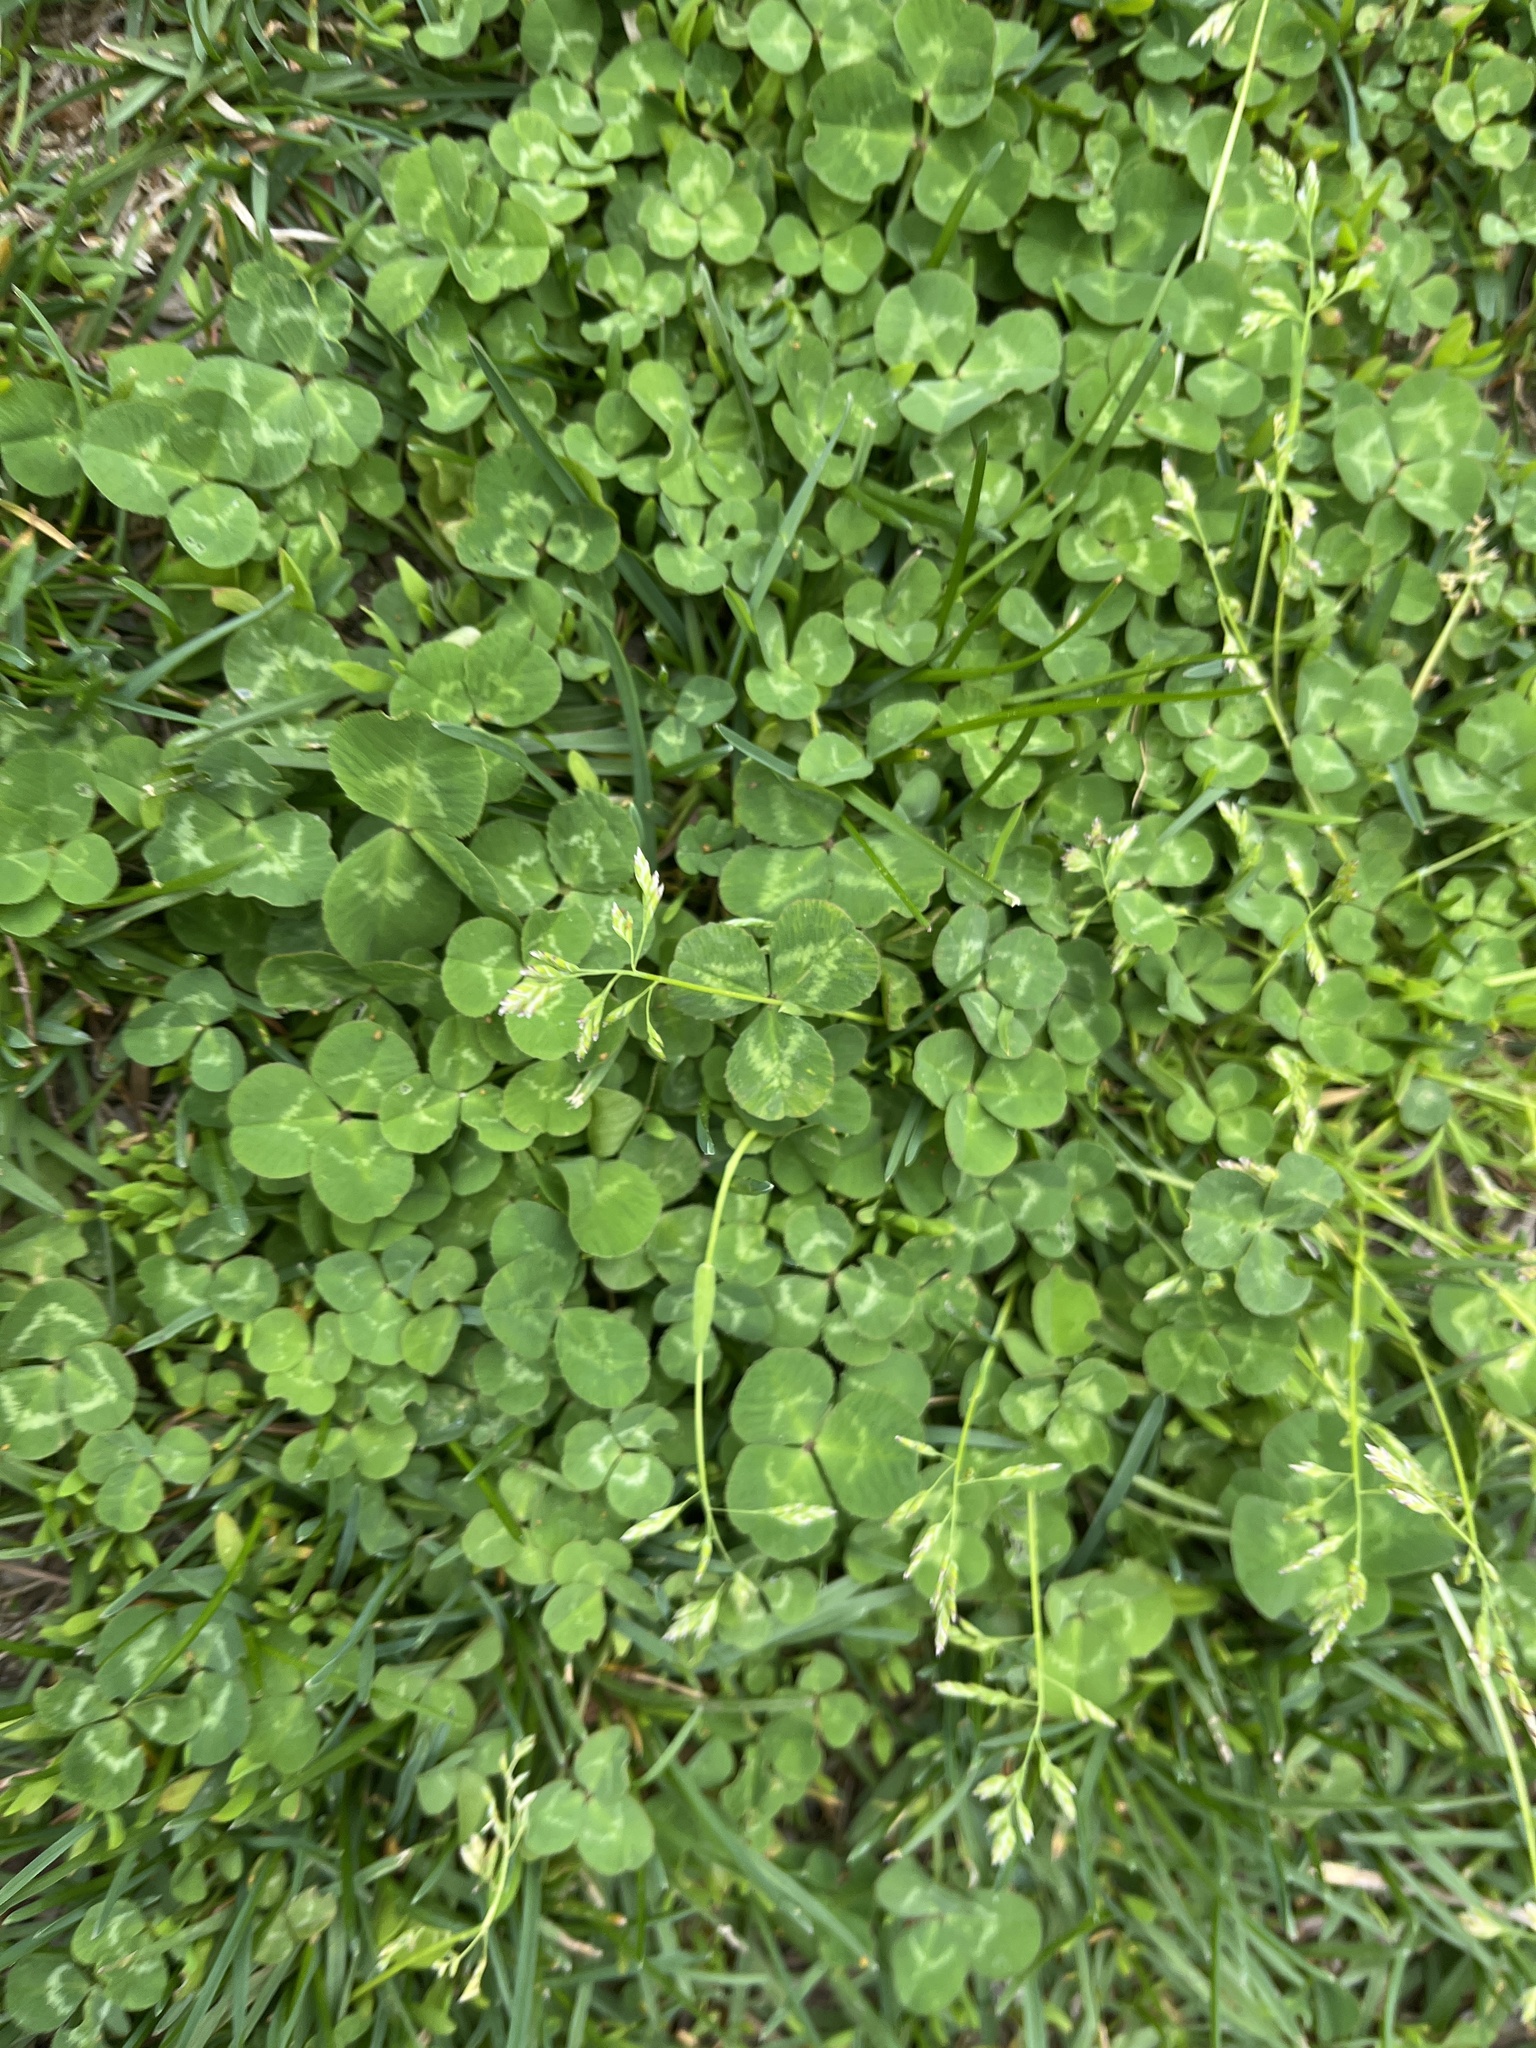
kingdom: Plantae
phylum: Tracheophyta
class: Magnoliopsida
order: Fabales
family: Fabaceae
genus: Trifolium
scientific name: Trifolium repens
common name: White clover
